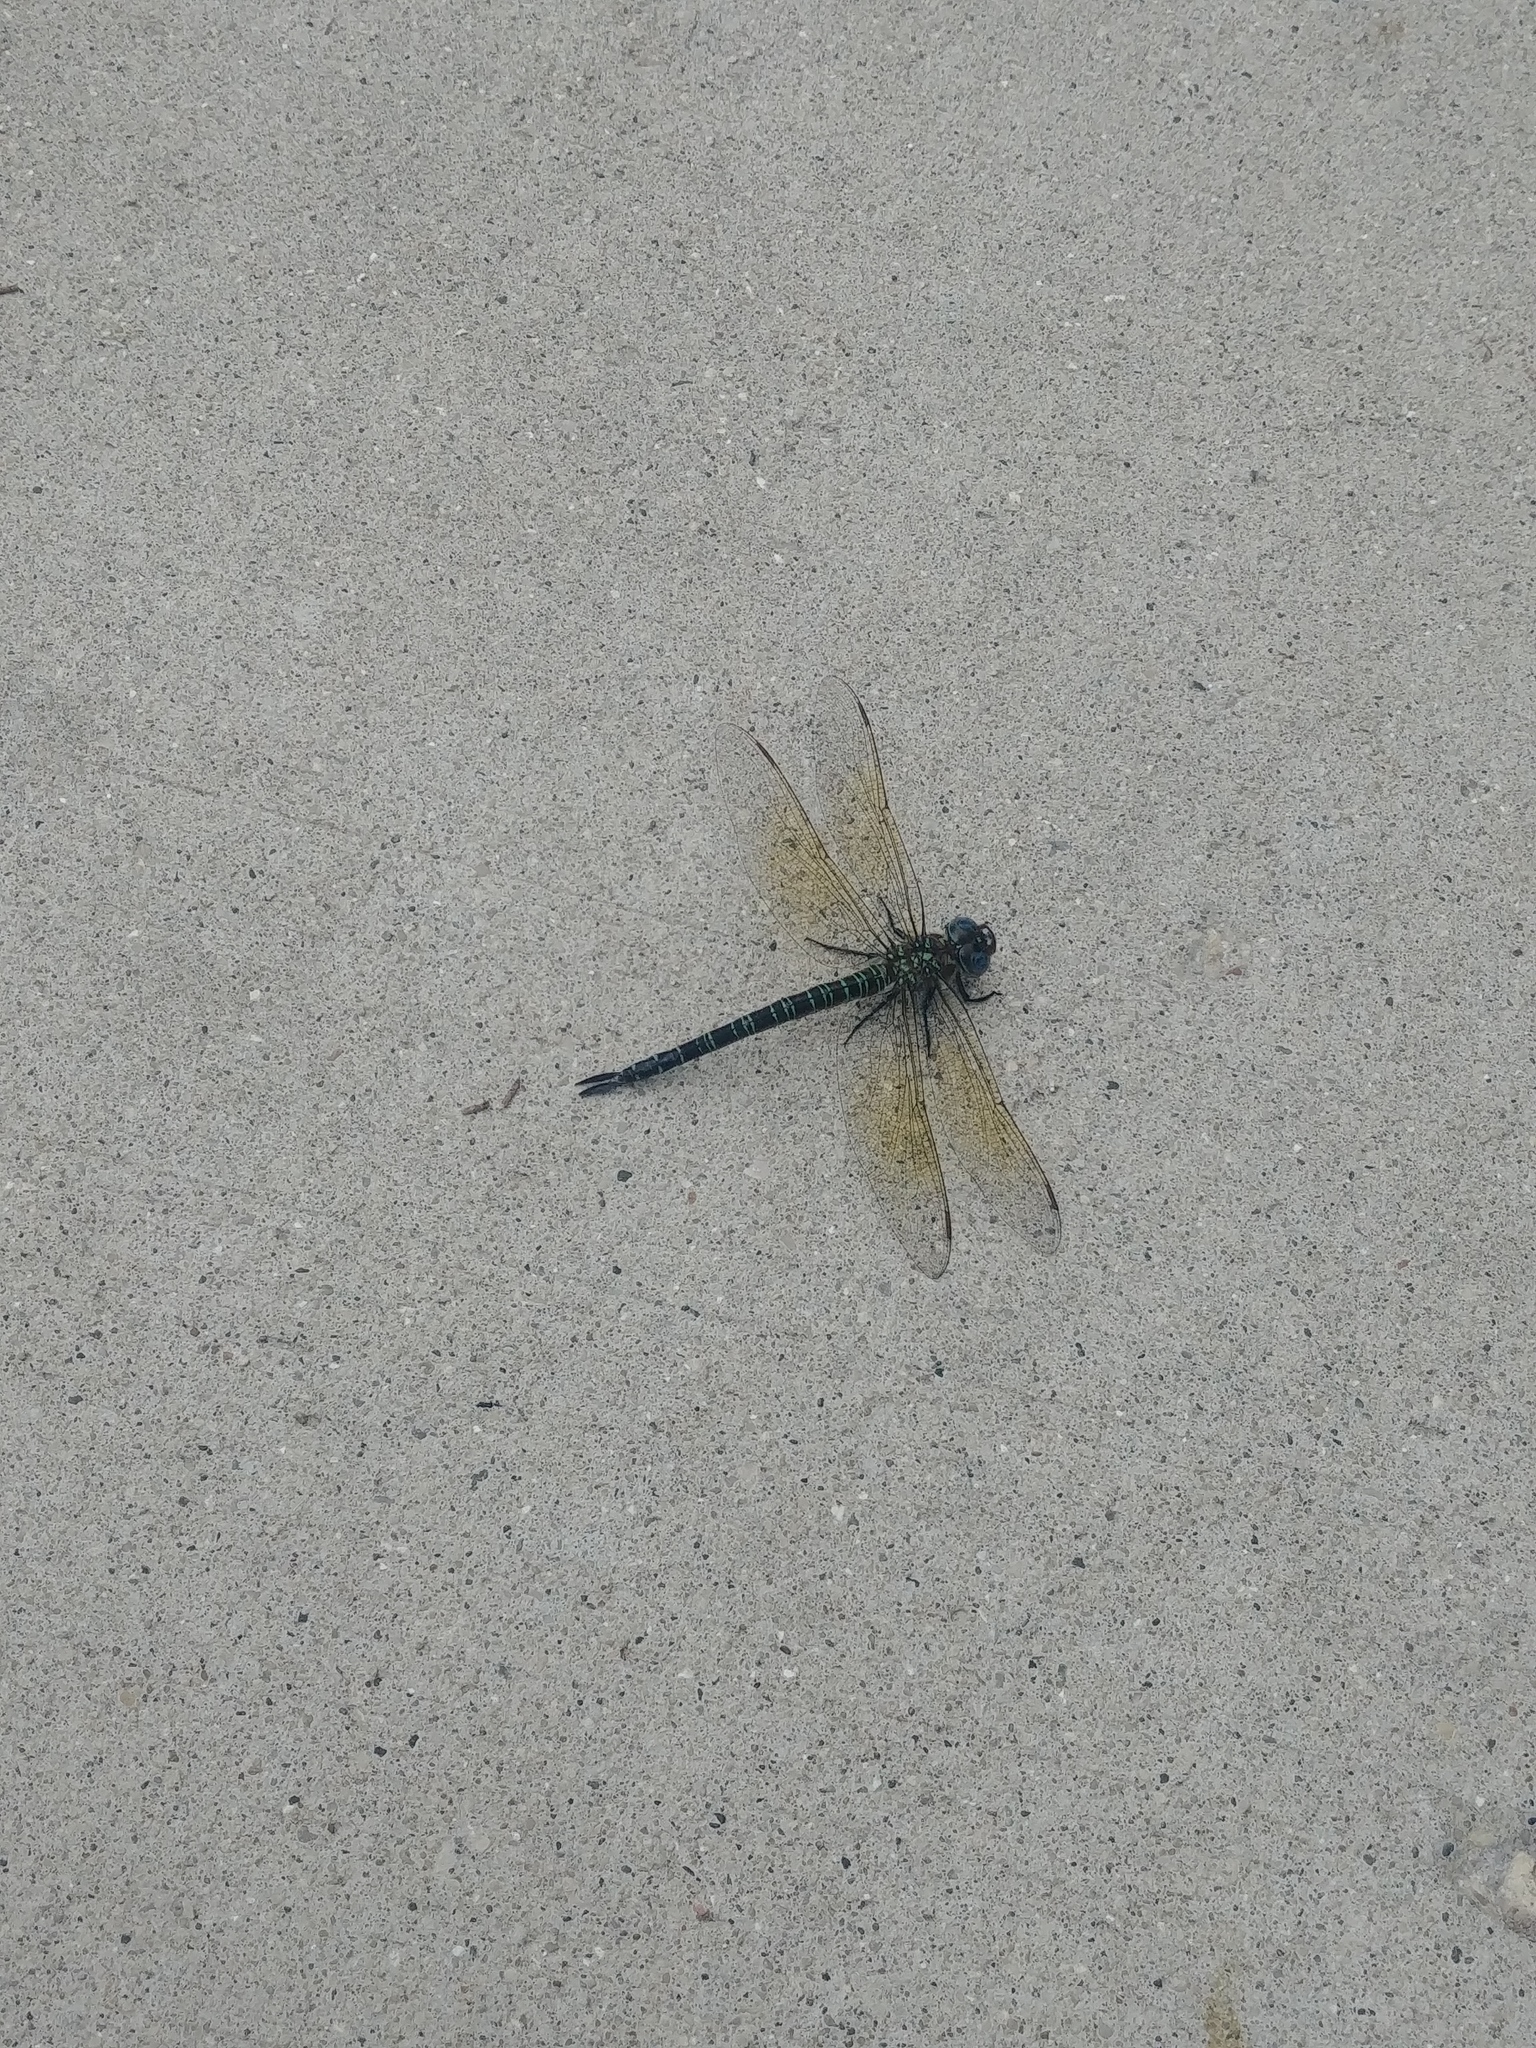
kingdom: Animalia
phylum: Arthropoda
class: Insecta
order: Odonata
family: Aeshnidae
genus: Epiaeschna
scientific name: Epiaeschna heros
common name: Swamp darner
